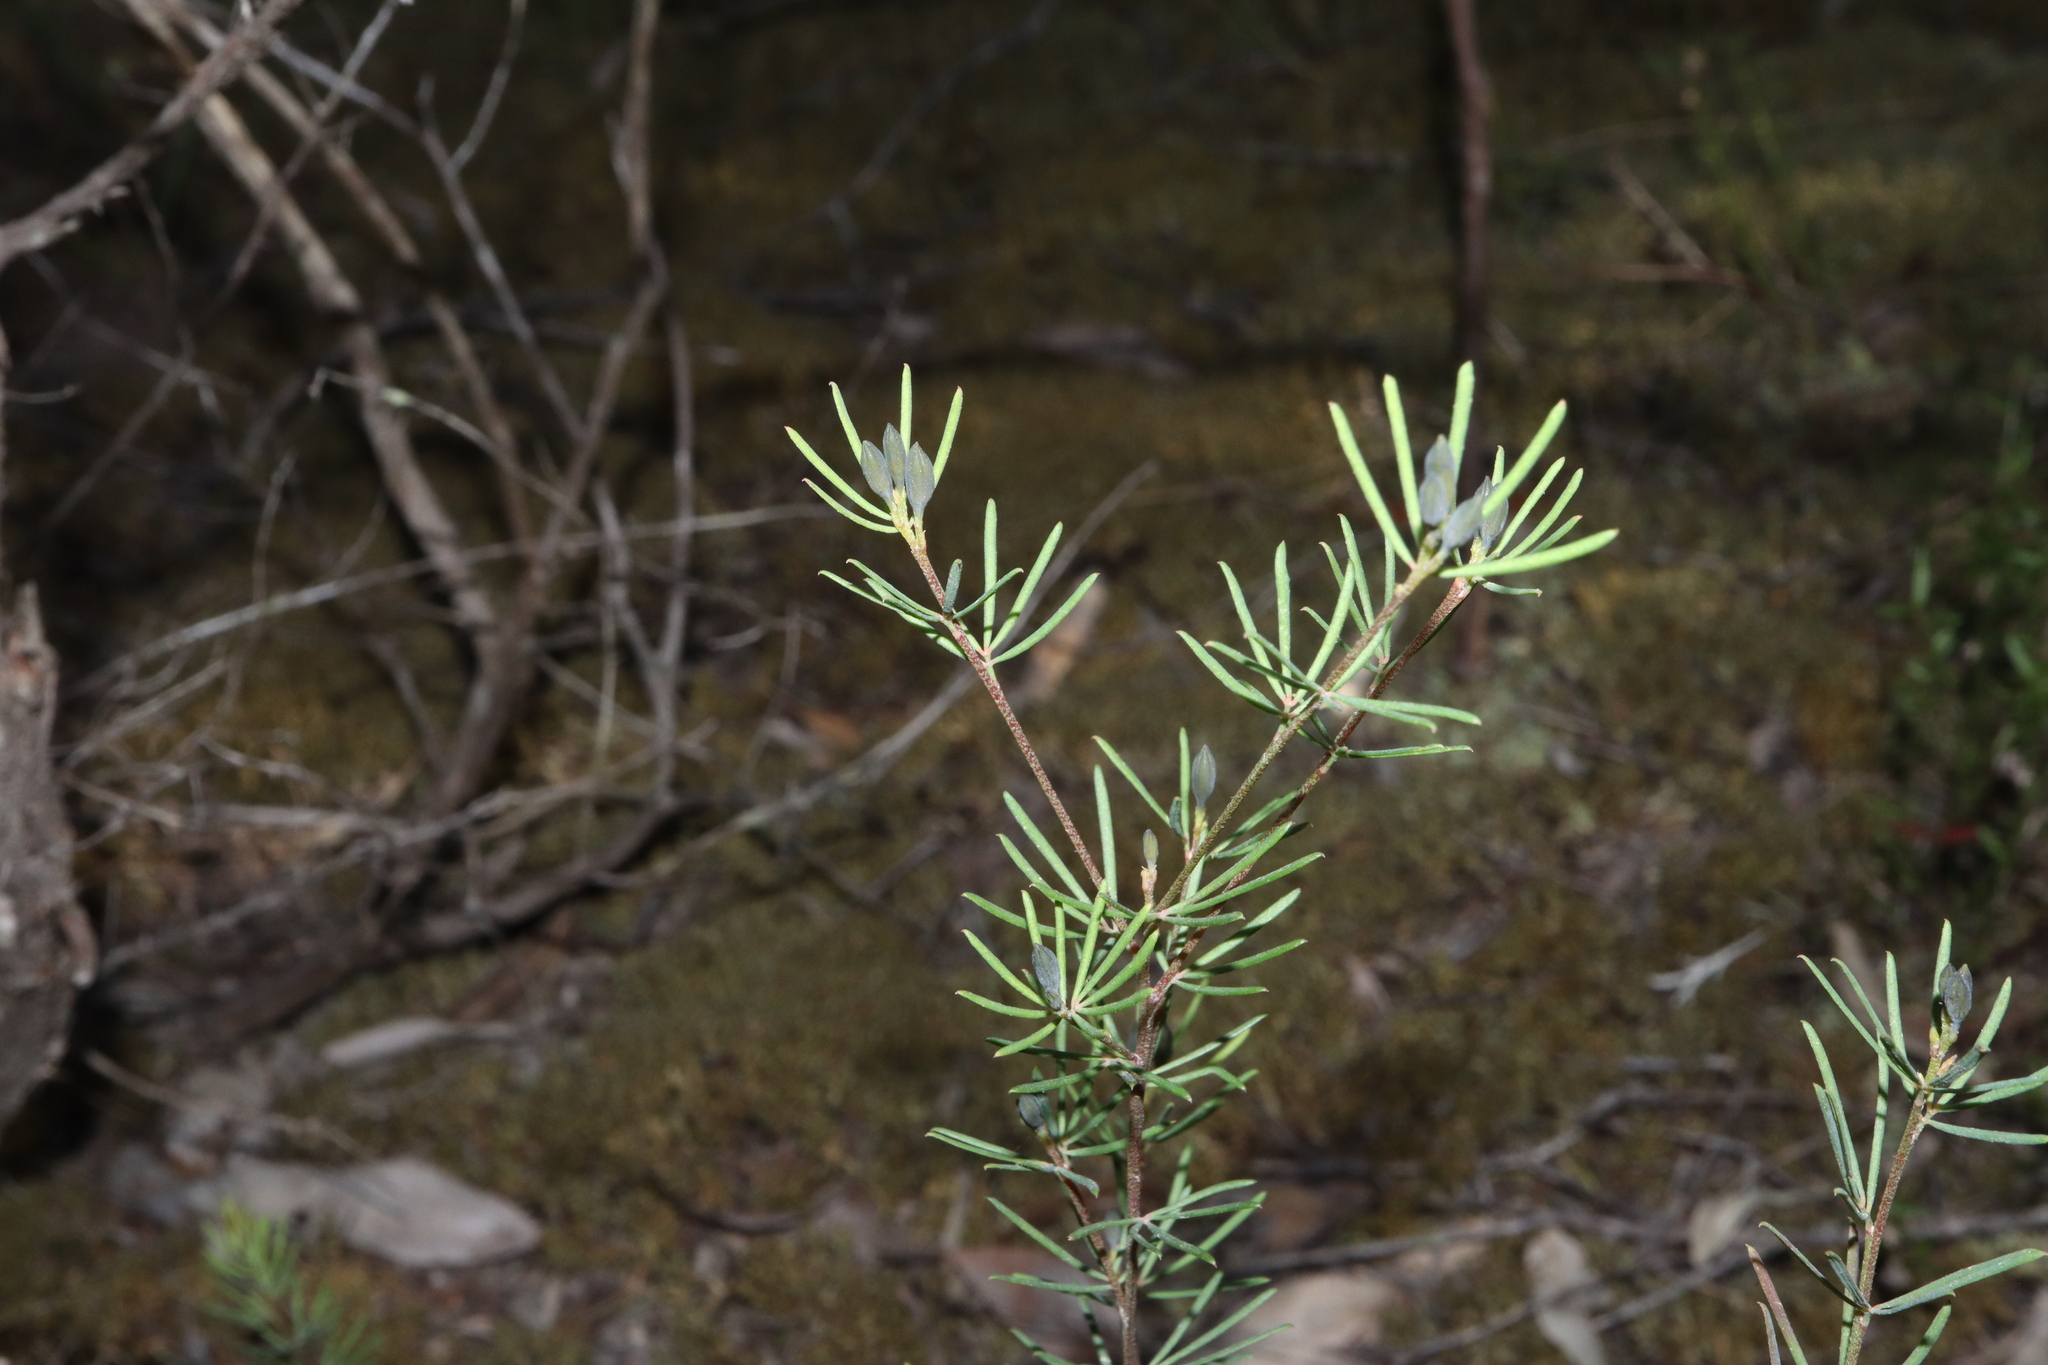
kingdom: Plantae
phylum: Tracheophyta
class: Magnoliopsida
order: Fabales
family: Fabaceae
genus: Gompholobium
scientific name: Gompholobium pinnatum
